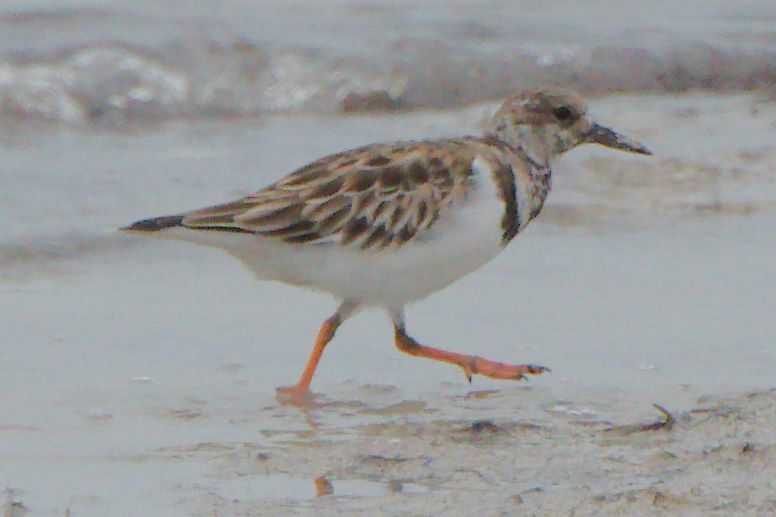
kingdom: Animalia
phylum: Chordata
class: Aves
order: Charadriiformes
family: Scolopacidae
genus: Arenaria
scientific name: Arenaria interpres
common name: Ruddy turnstone
